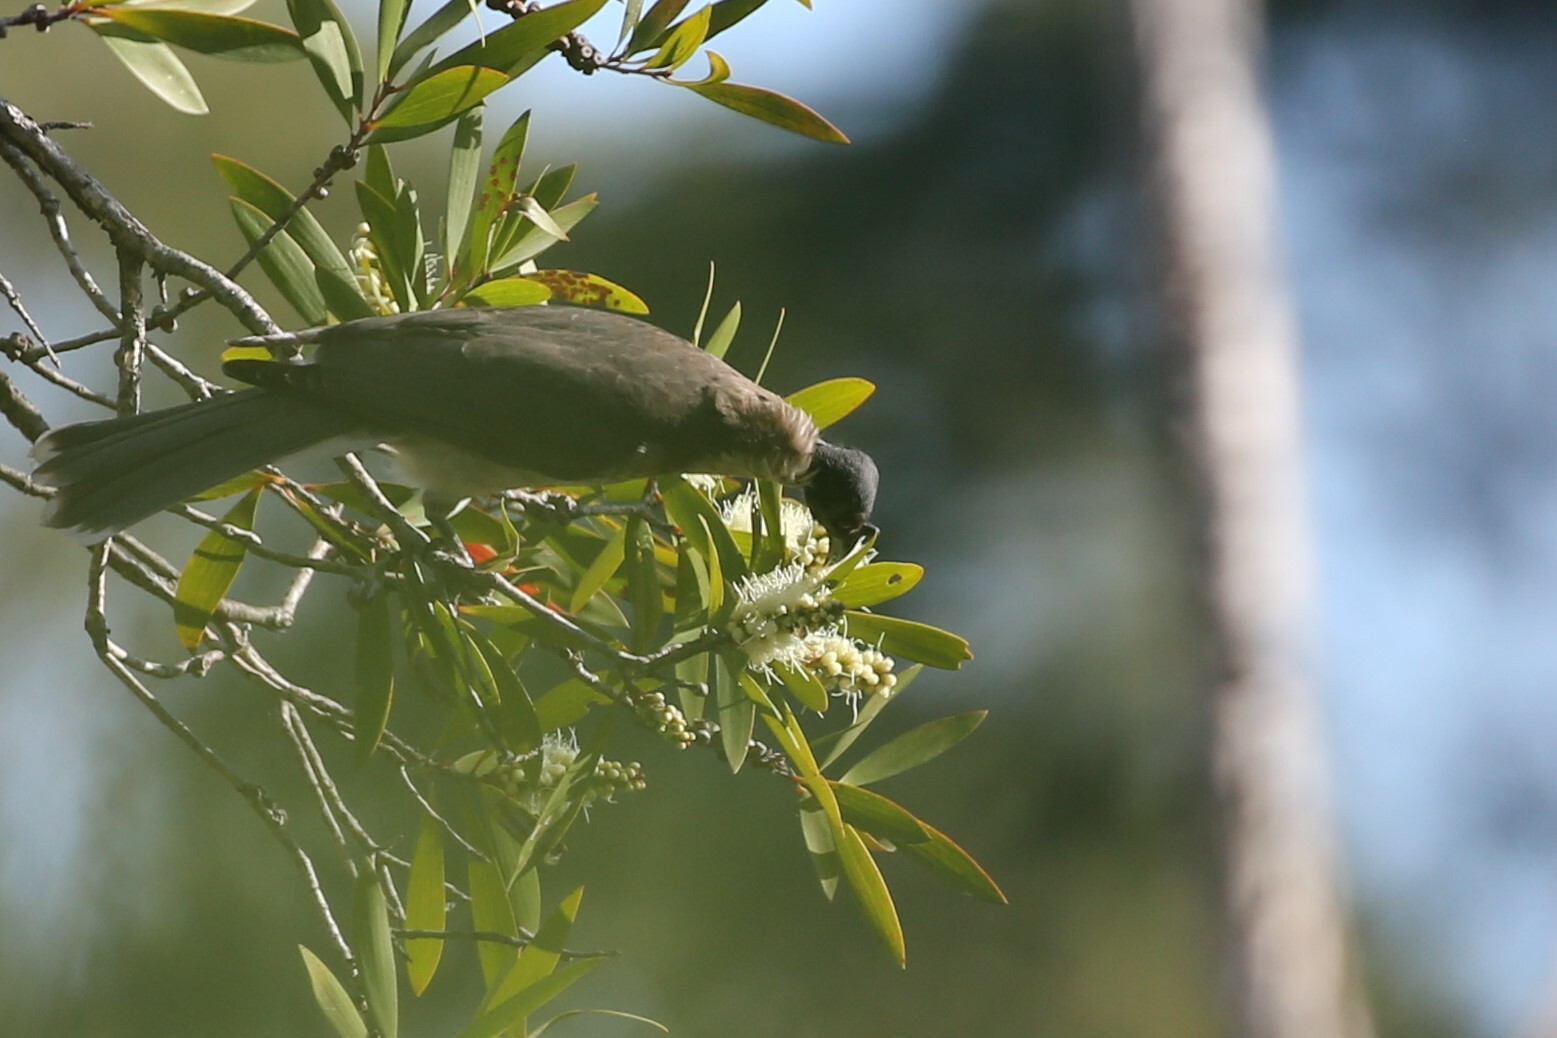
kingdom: Animalia
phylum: Chordata
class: Aves
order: Passeriformes
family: Meliphagidae
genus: Philemon
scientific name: Philemon corniculatus
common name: Noisy friarbird
